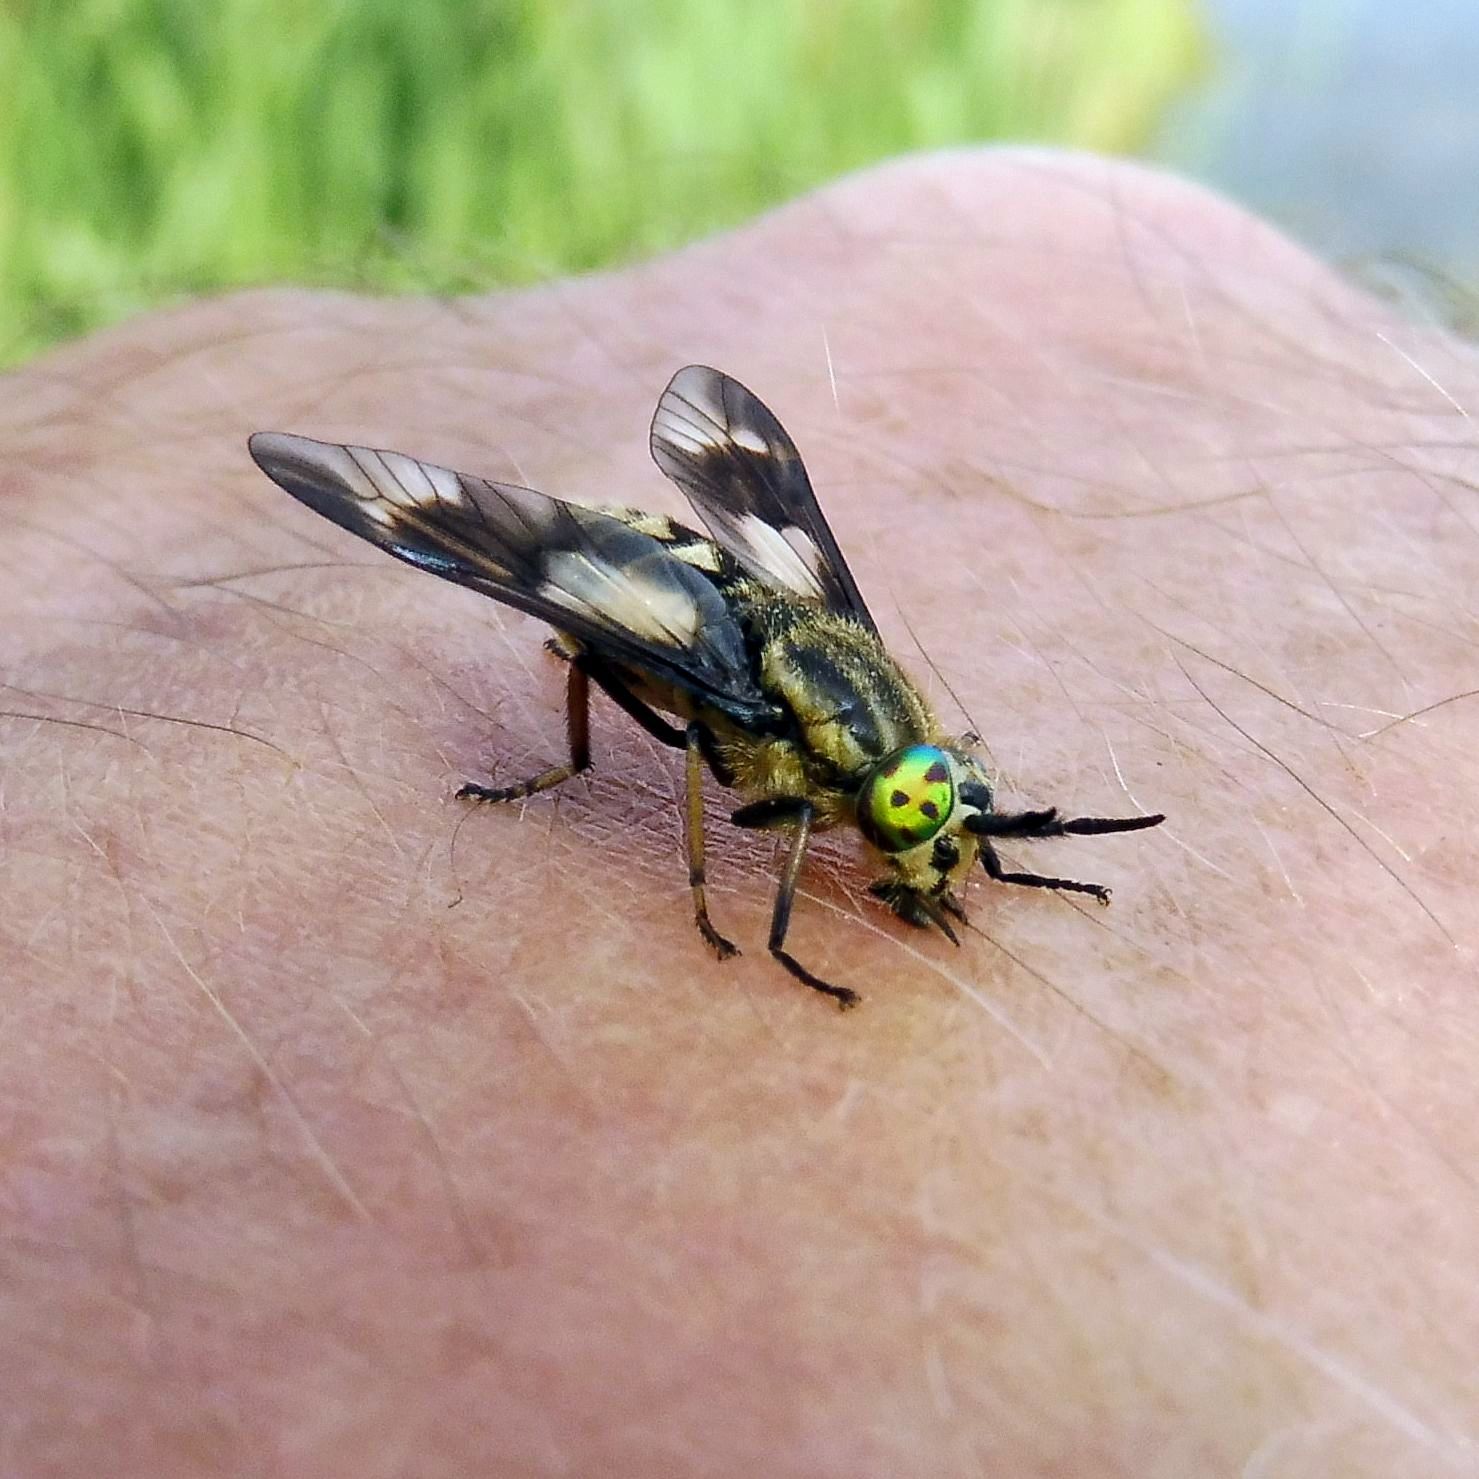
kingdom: Animalia
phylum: Arthropoda
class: Insecta
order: Diptera
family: Tabanidae
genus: Chrysops
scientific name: Chrysops relictus
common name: Twin-lobed deerfly
